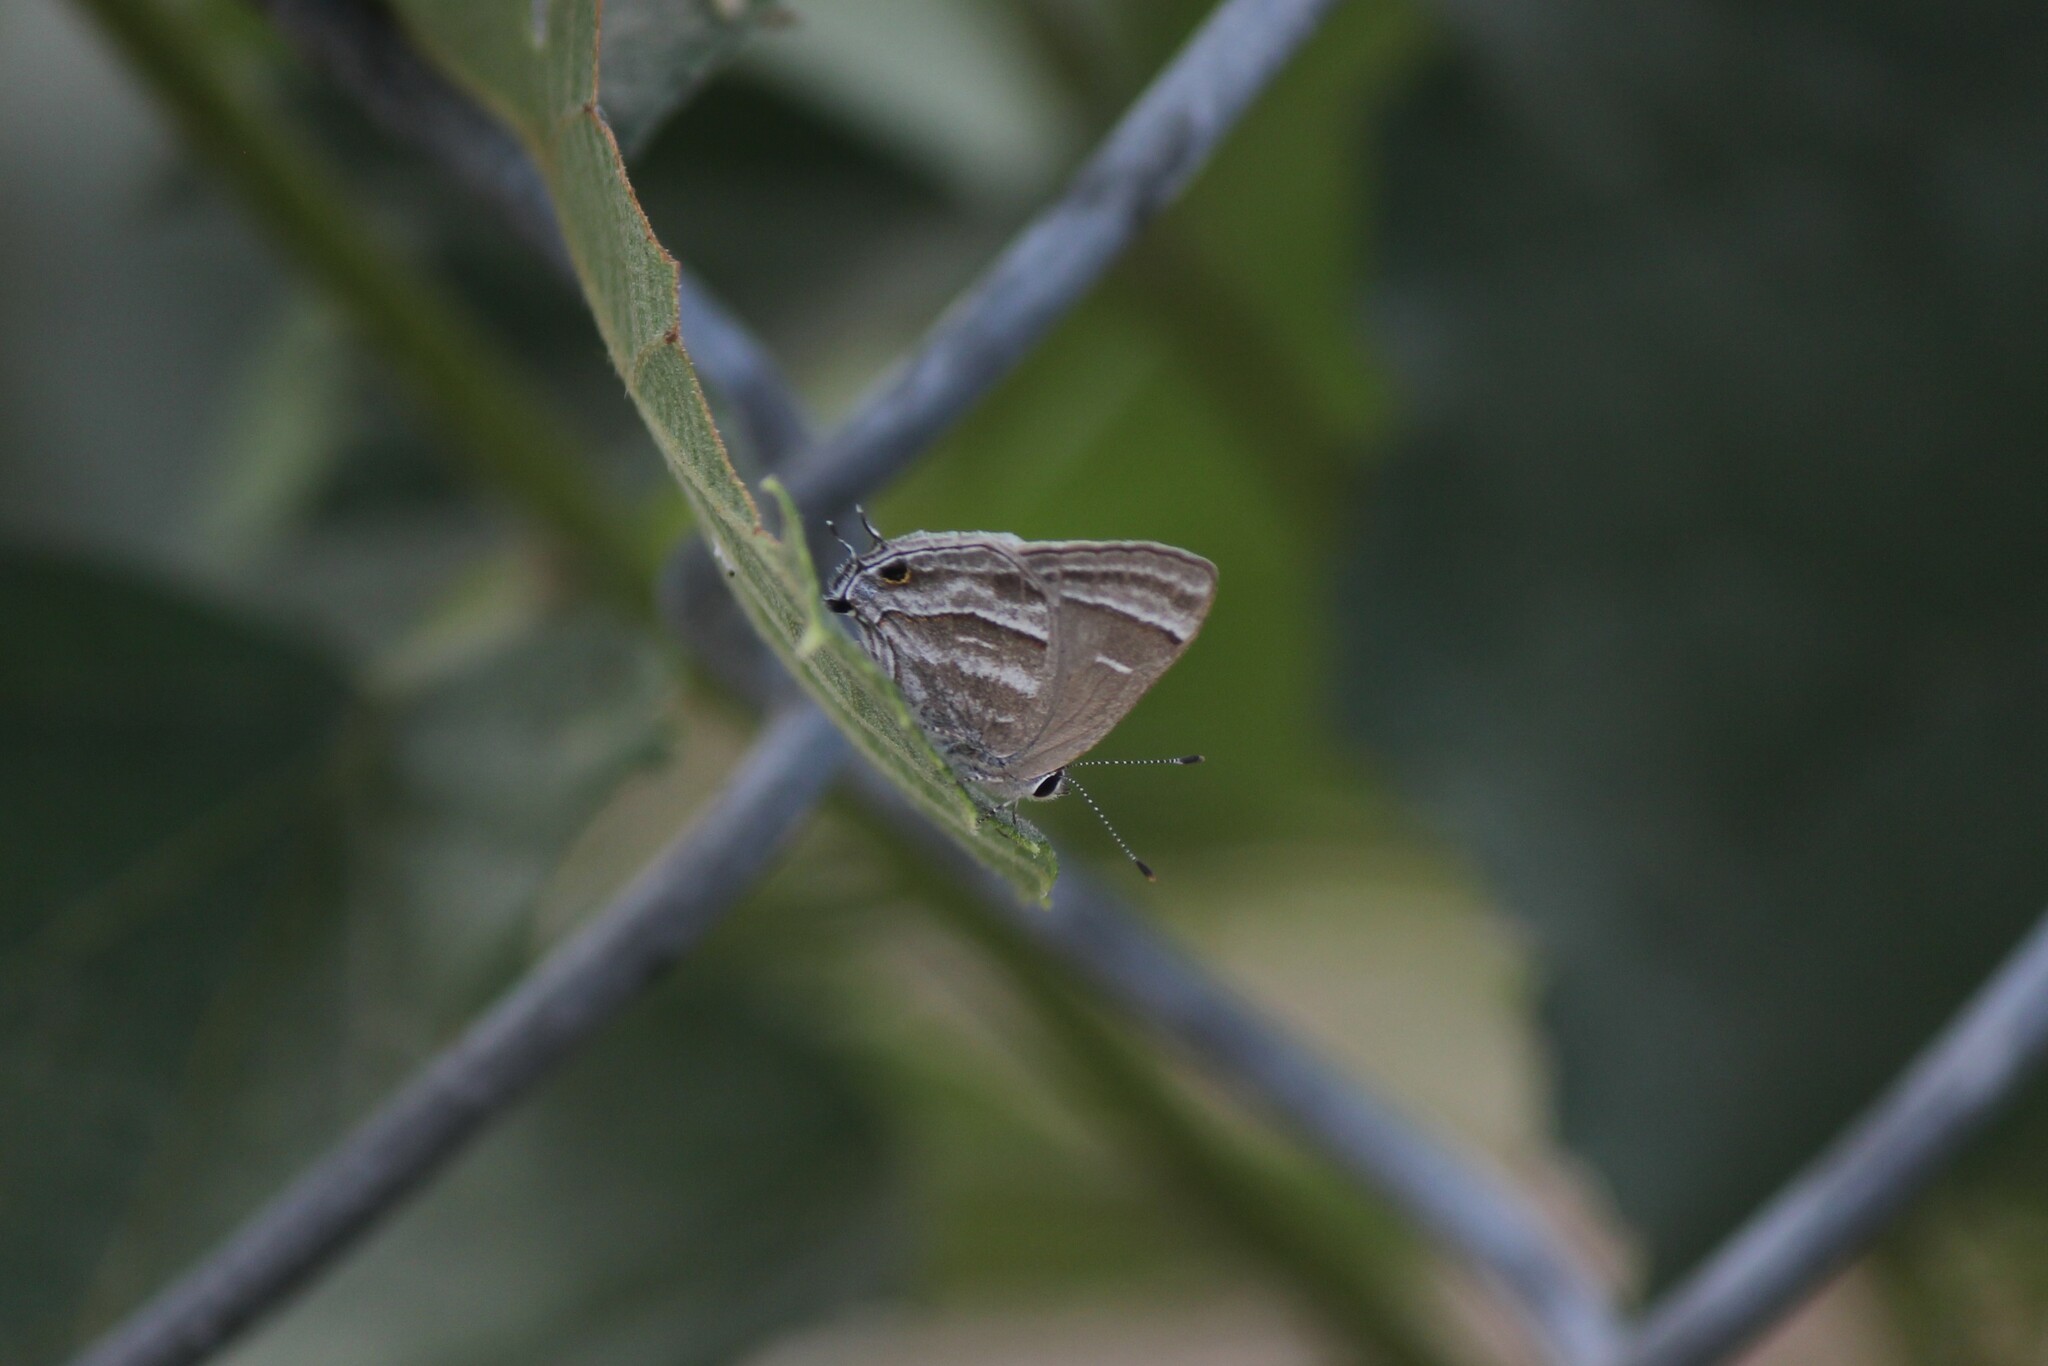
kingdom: Animalia
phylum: Arthropoda
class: Insecta
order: Lepidoptera
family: Lycaenidae
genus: Strymon
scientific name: Strymon
